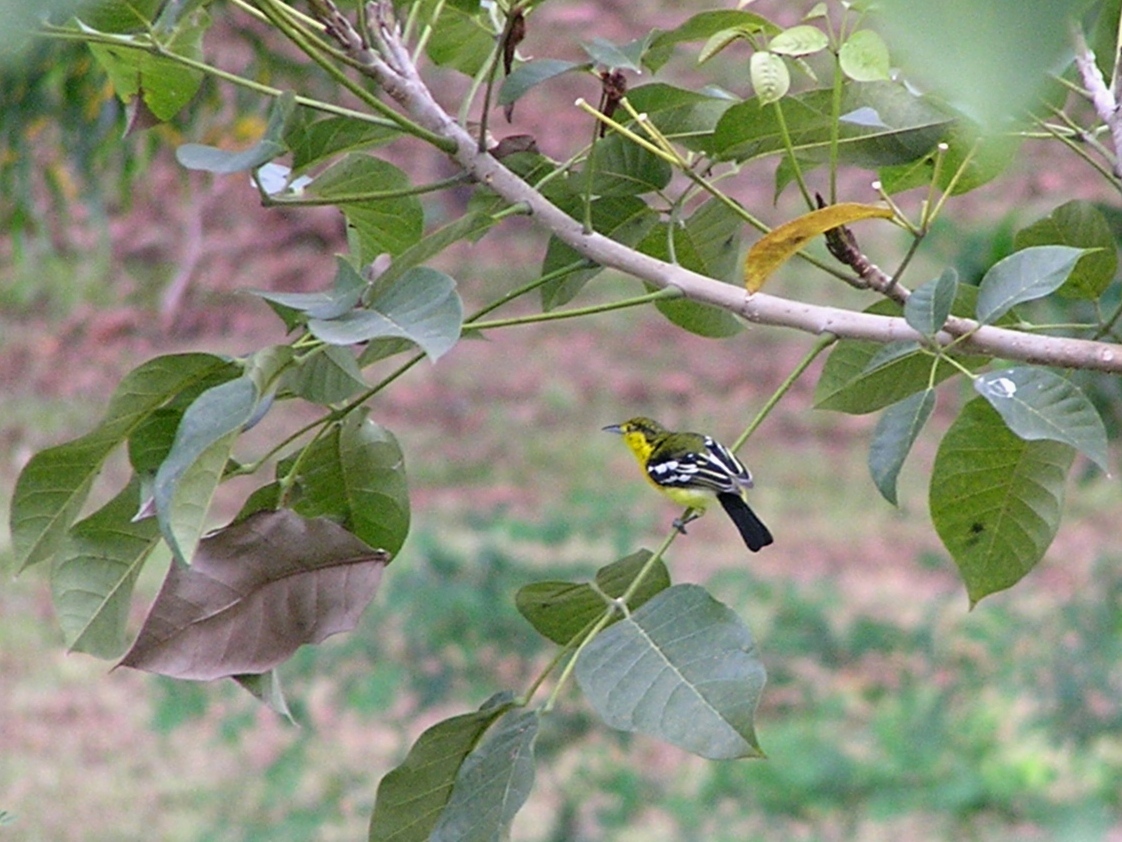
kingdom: Animalia
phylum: Chordata
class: Aves
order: Passeriformes
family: Aegithinidae
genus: Aegithina
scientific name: Aegithina tiphia
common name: Common iora
